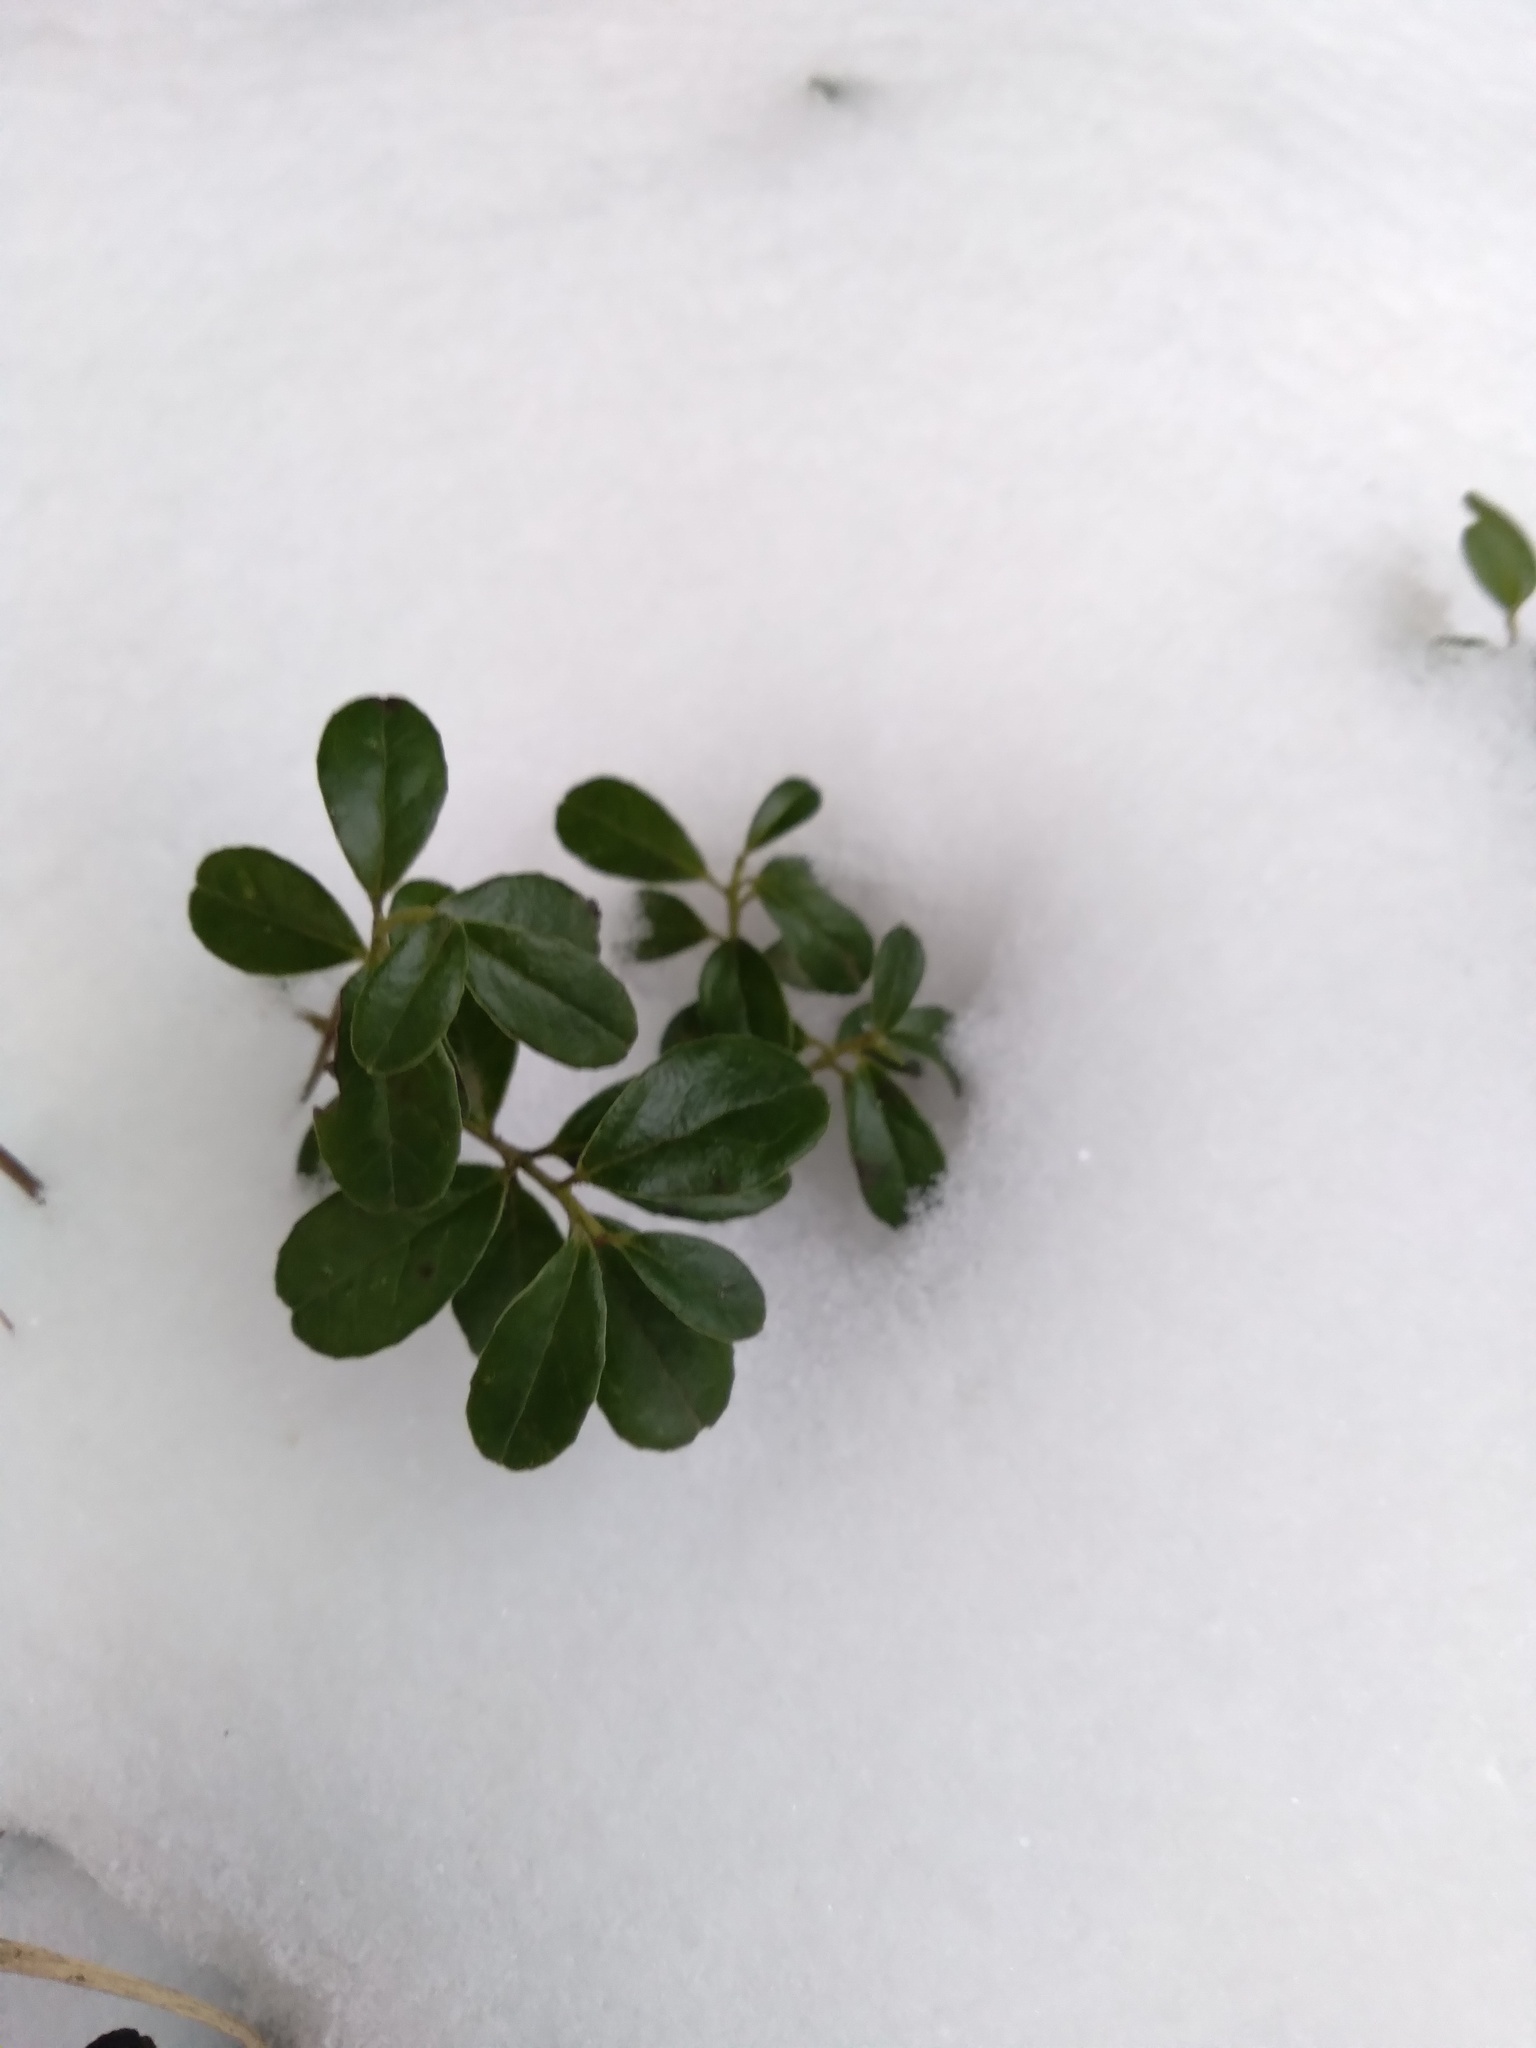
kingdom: Plantae
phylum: Tracheophyta
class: Magnoliopsida
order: Ericales
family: Ericaceae
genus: Vaccinium
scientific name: Vaccinium vitis-idaea
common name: Cowberry
